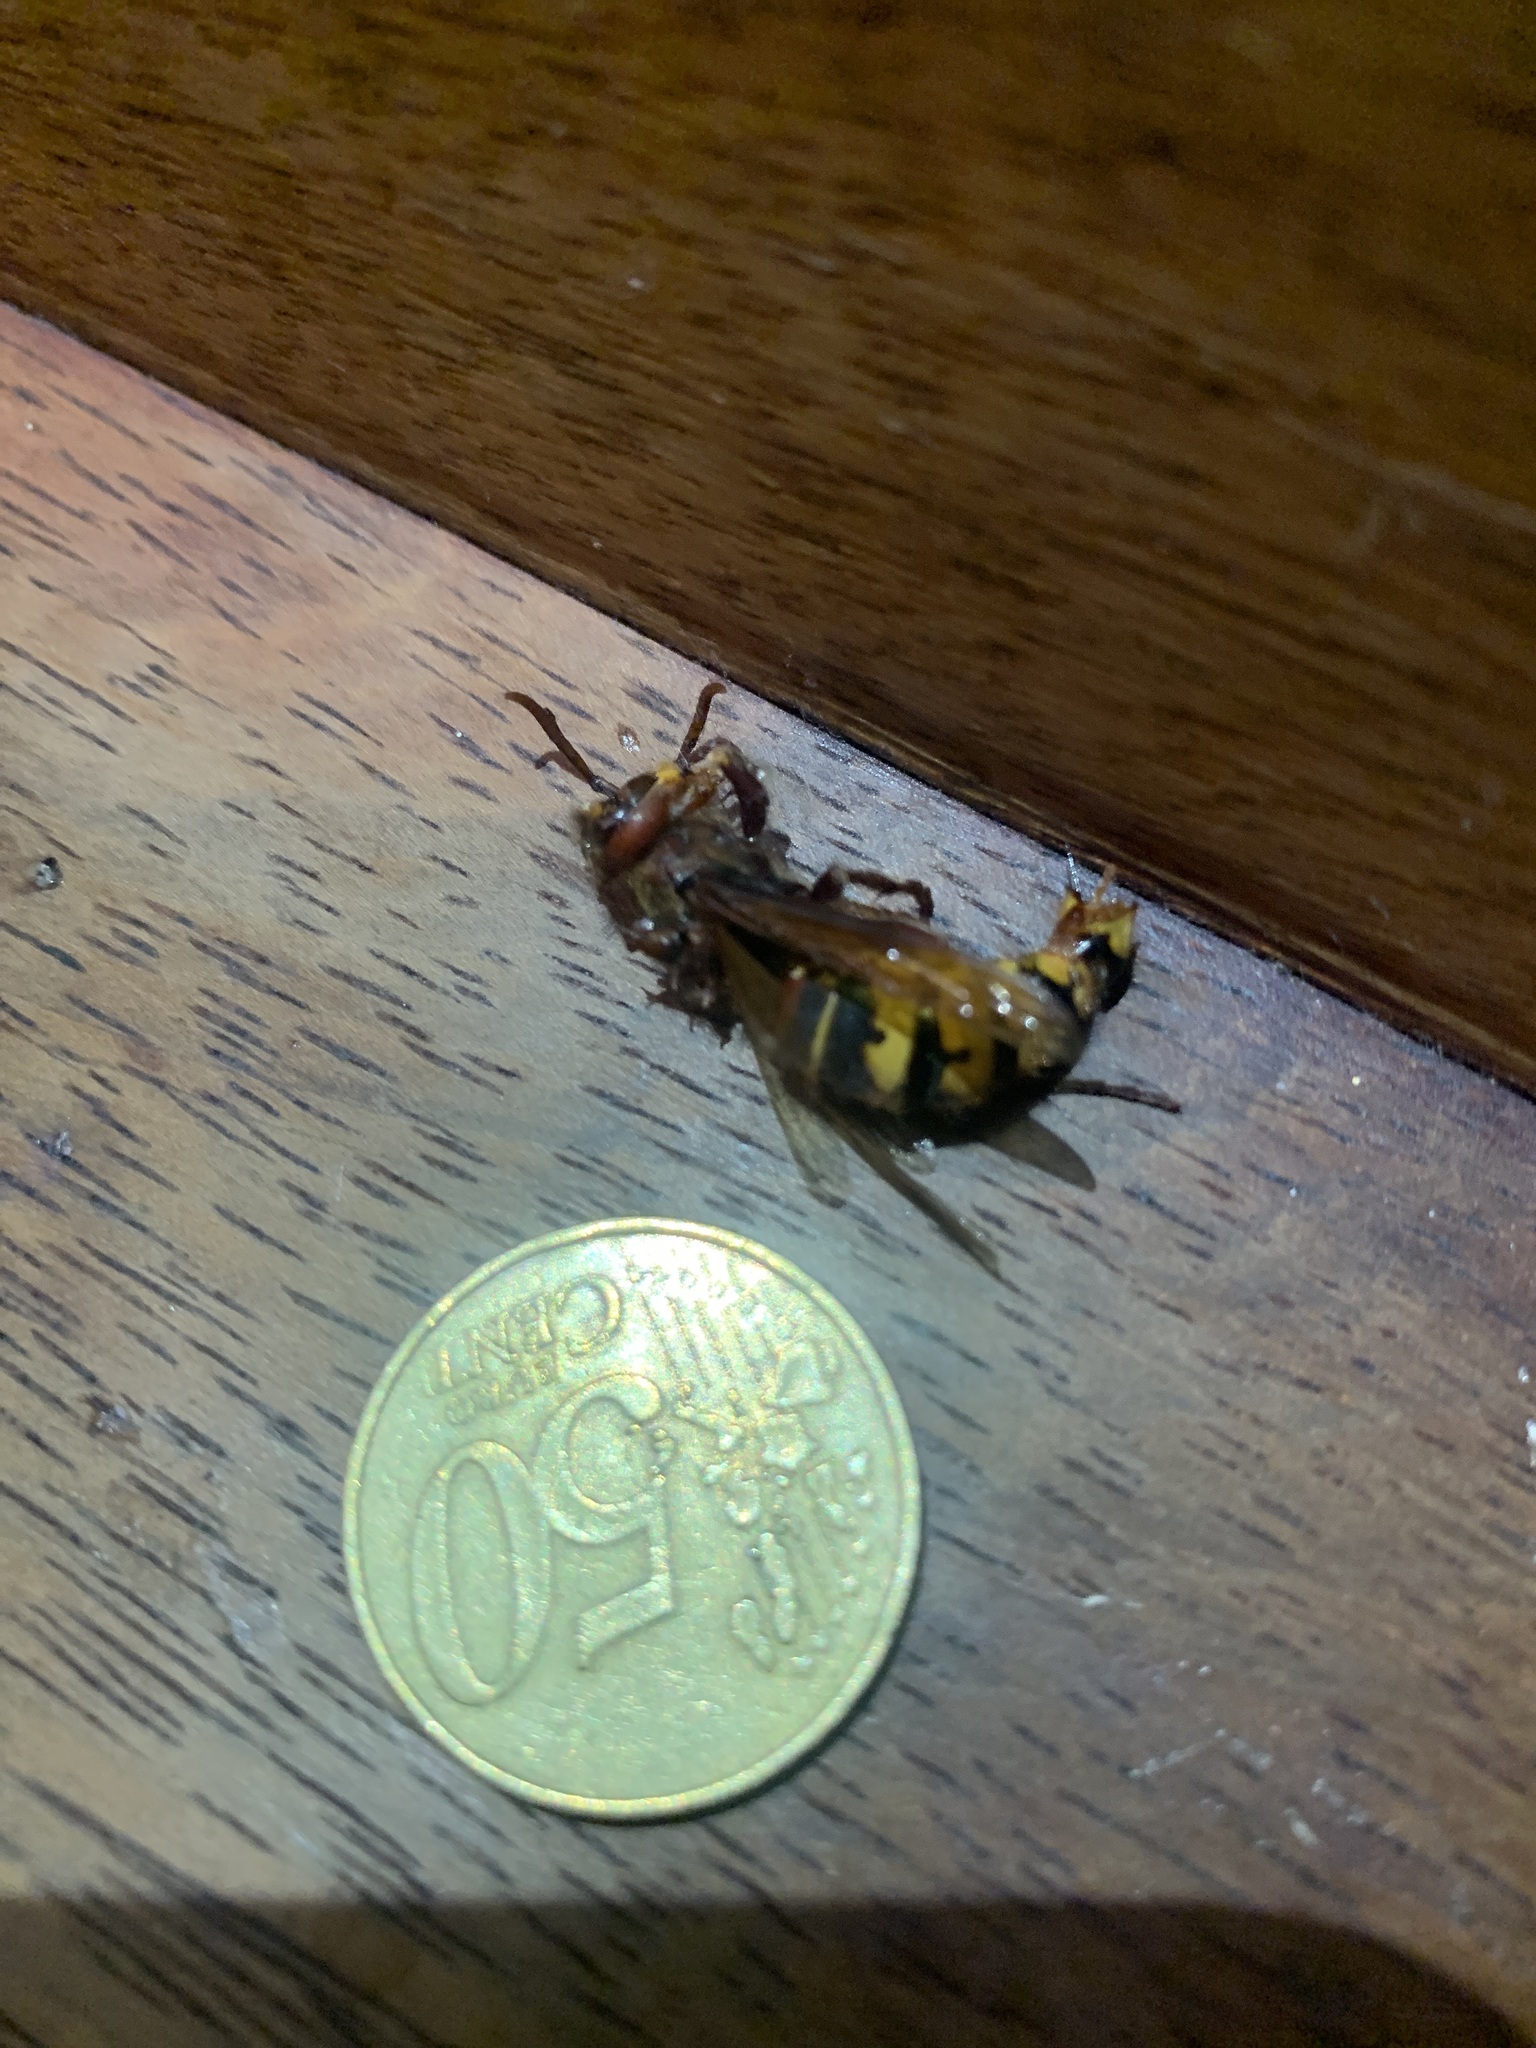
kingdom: Animalia
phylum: Arthropoda
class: Insecta
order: Hymenoptera
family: Vespidae
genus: Vespa
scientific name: Vespa crabro
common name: Hornet
